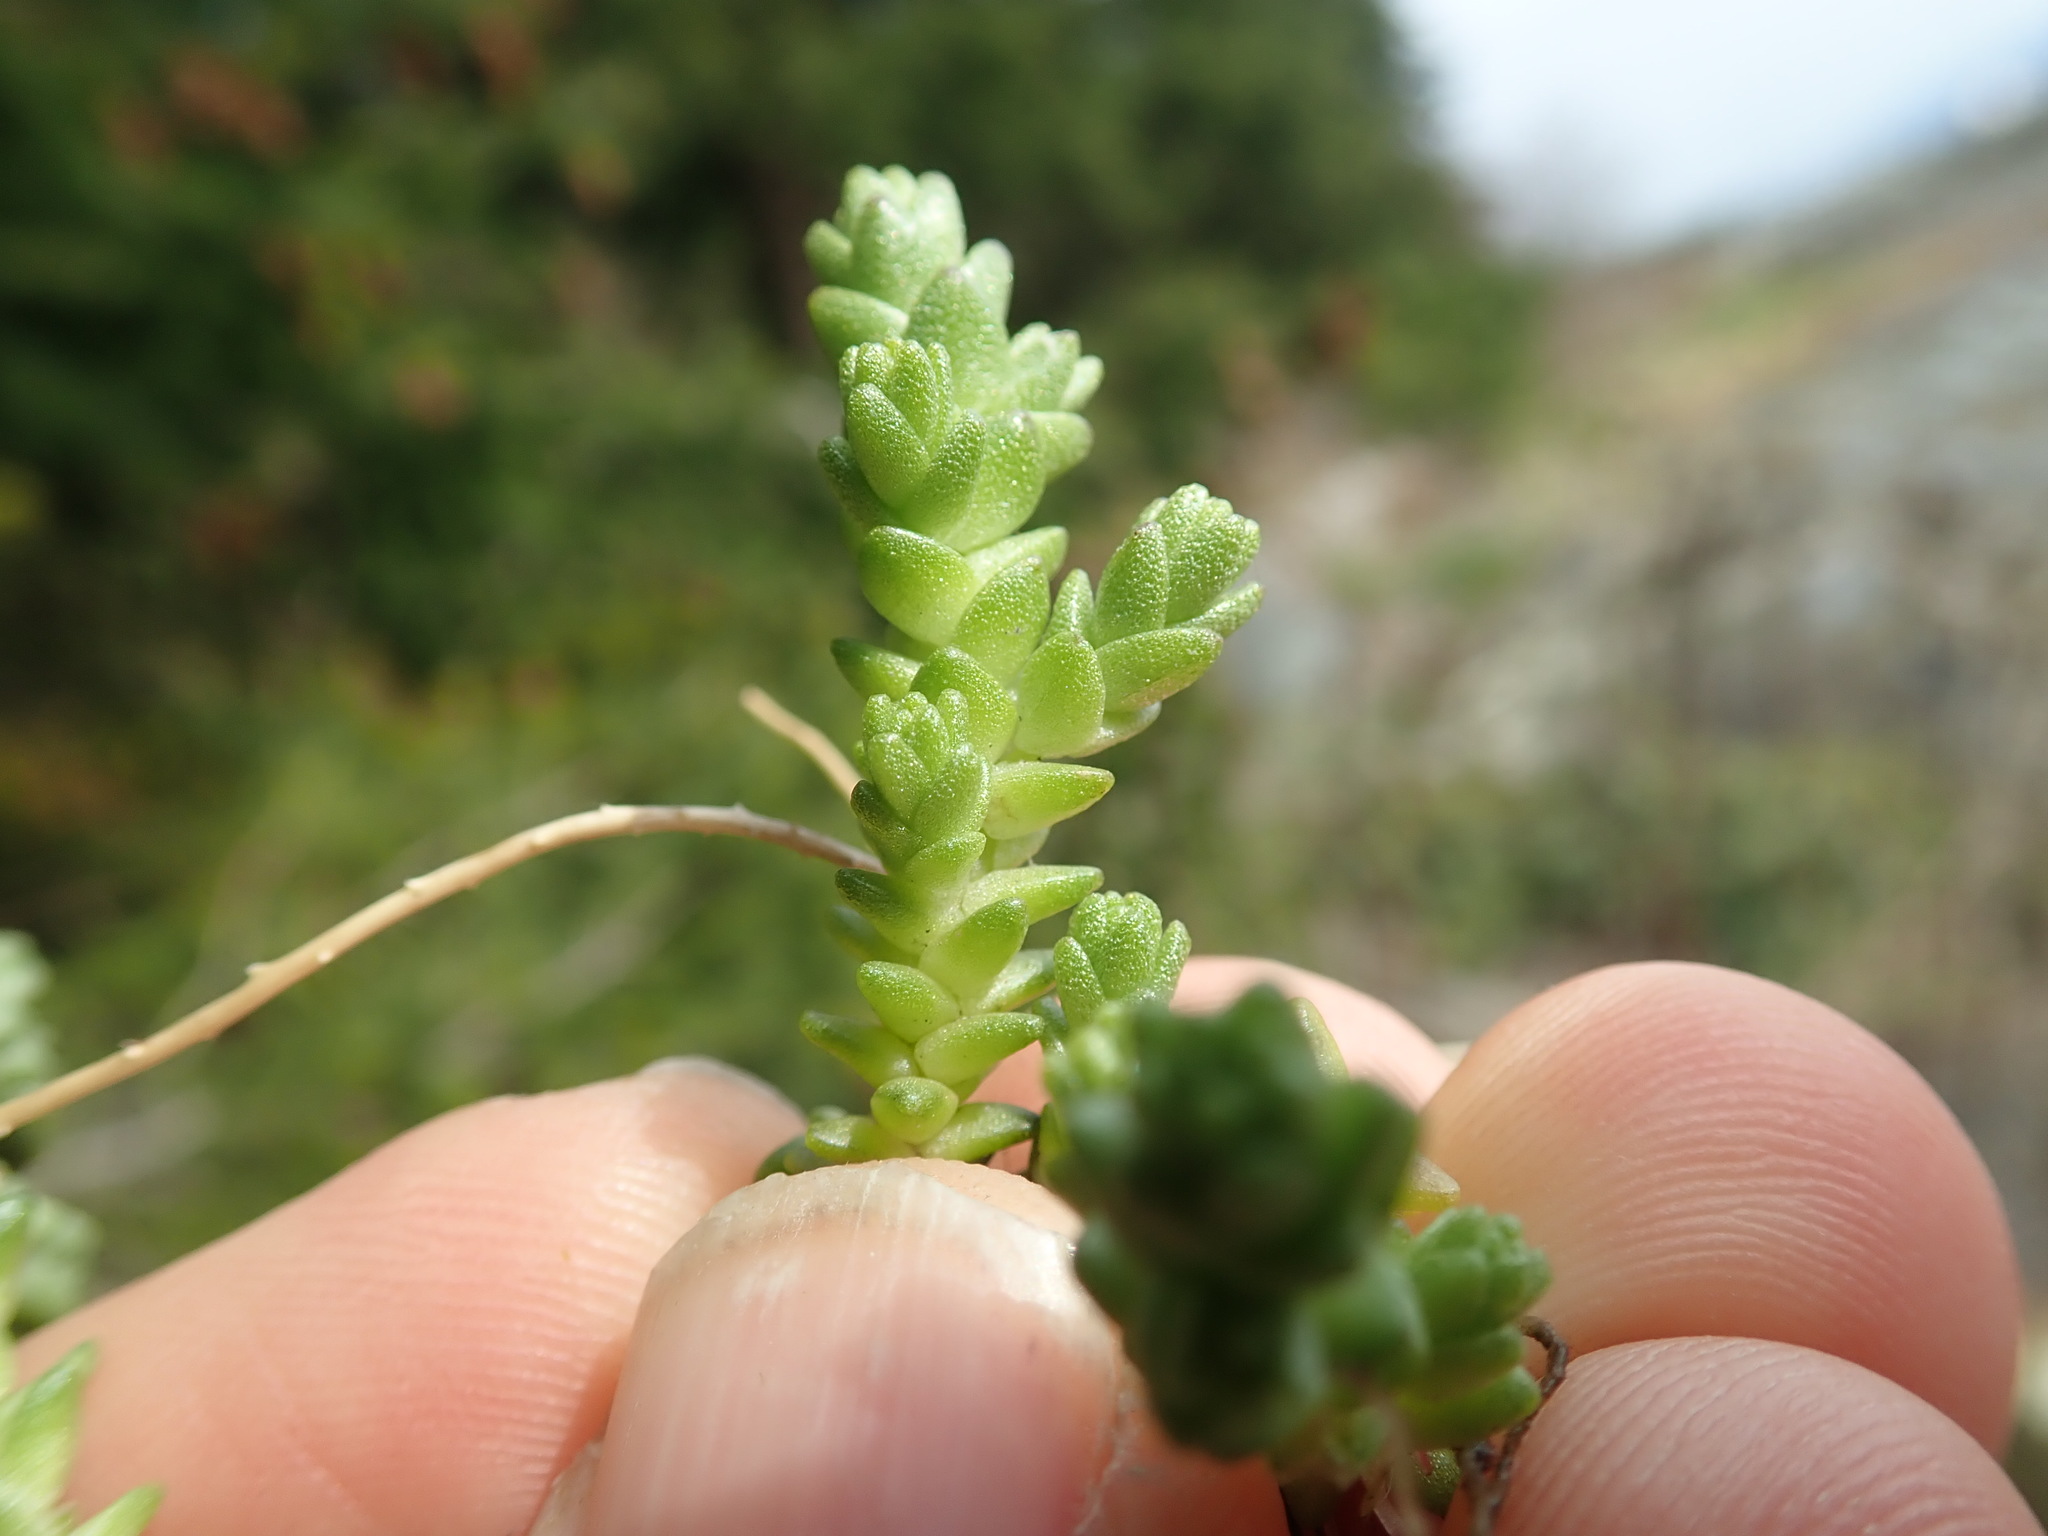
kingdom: Plantae
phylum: Tracheophyta
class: Magnoliopsida
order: Saxifragales
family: Crassulaceae
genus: Sedum
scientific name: Sedum acre
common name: Biting stonecrop
